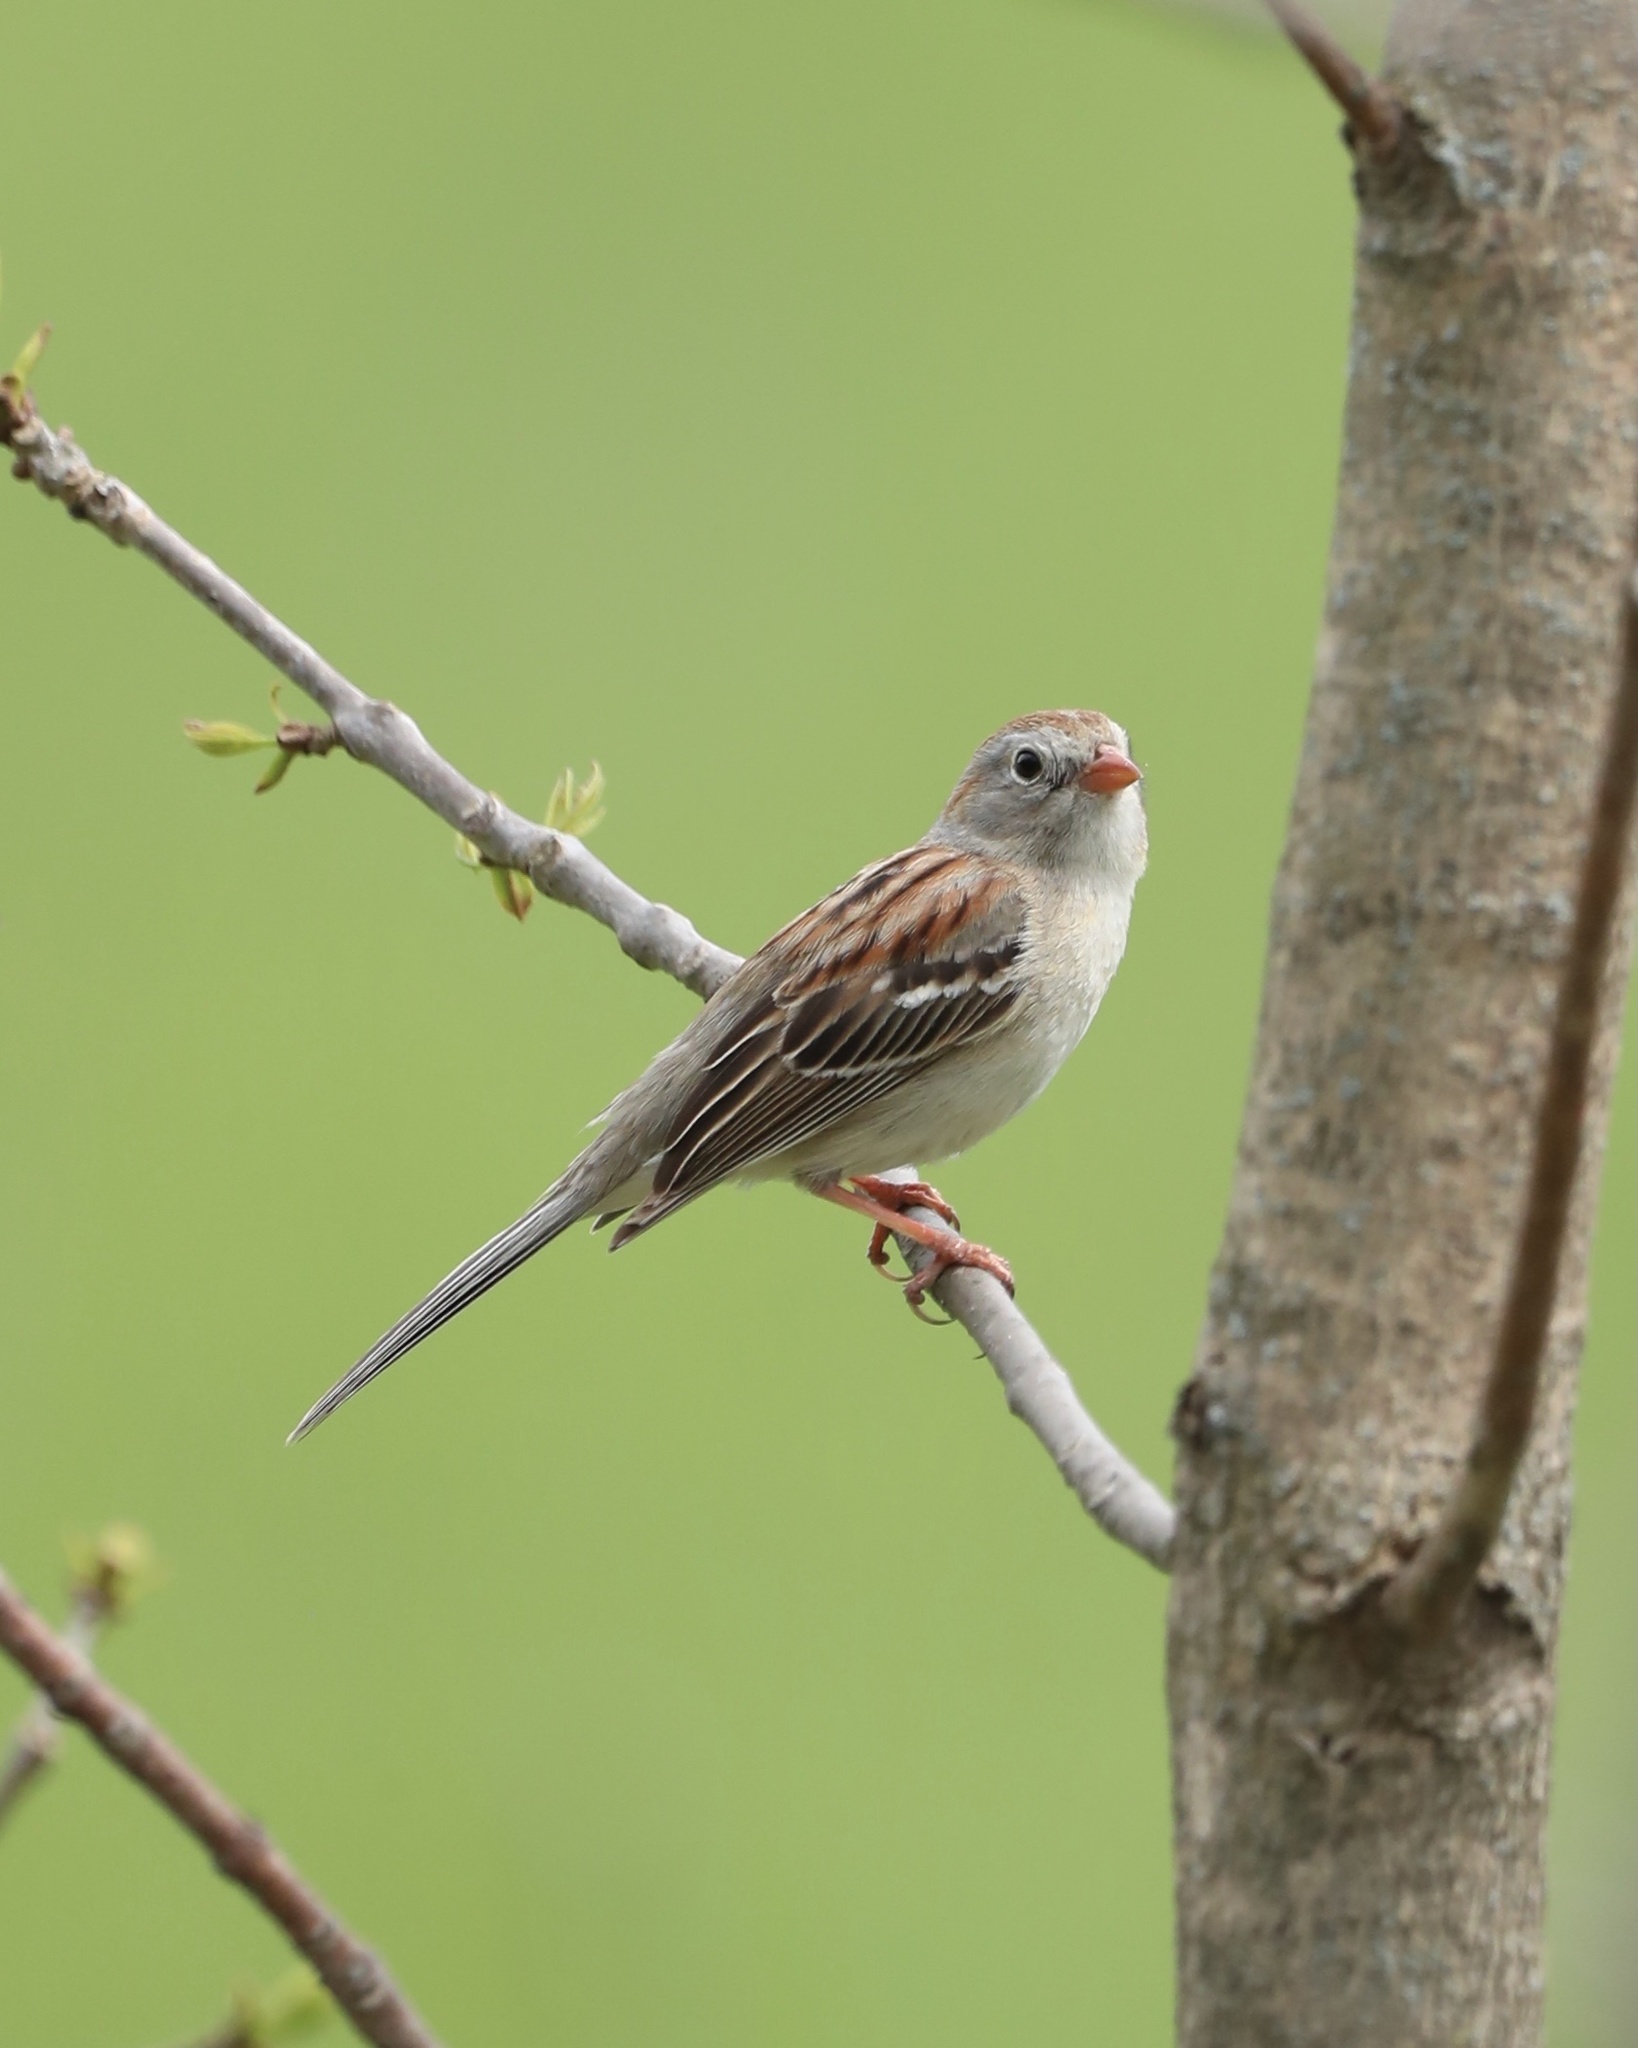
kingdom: Animalia
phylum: Chordata
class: Aves
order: Passeriformes
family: Passerellidae
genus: Spizella
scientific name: Spizella pusilla
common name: Field sparrow
